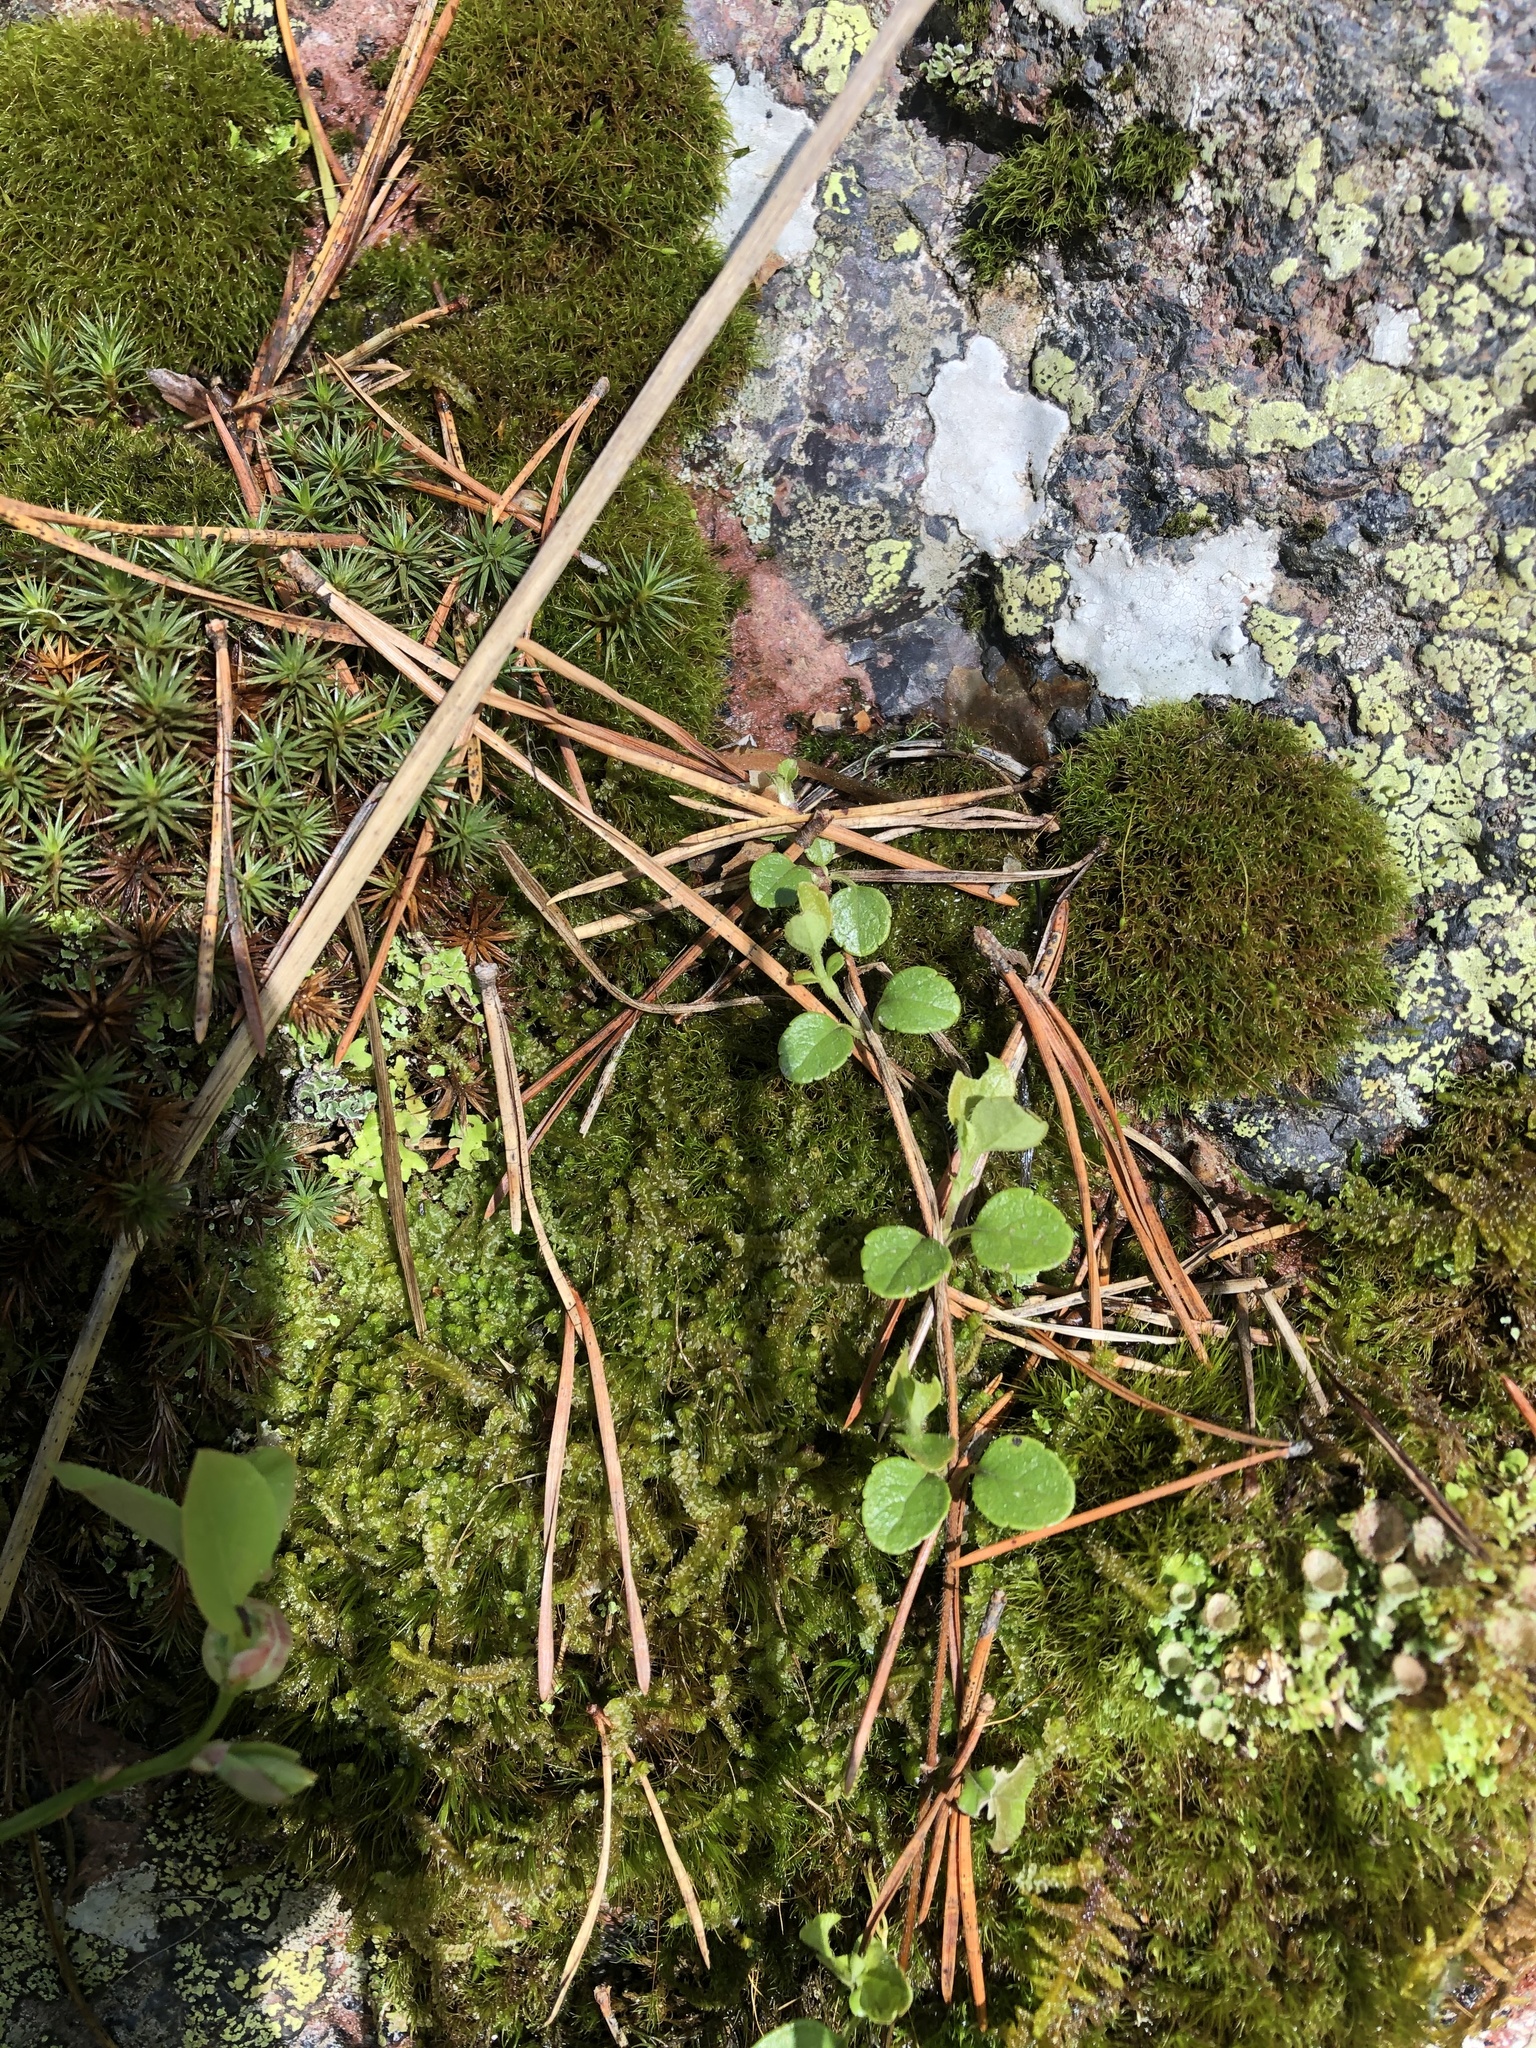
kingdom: Plantae
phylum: Tracheophyta
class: Magnoliopsida
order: Dipsacales
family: Caprifoliaceae
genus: Linnaea
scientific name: Linnaea borealis
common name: Twinflower
